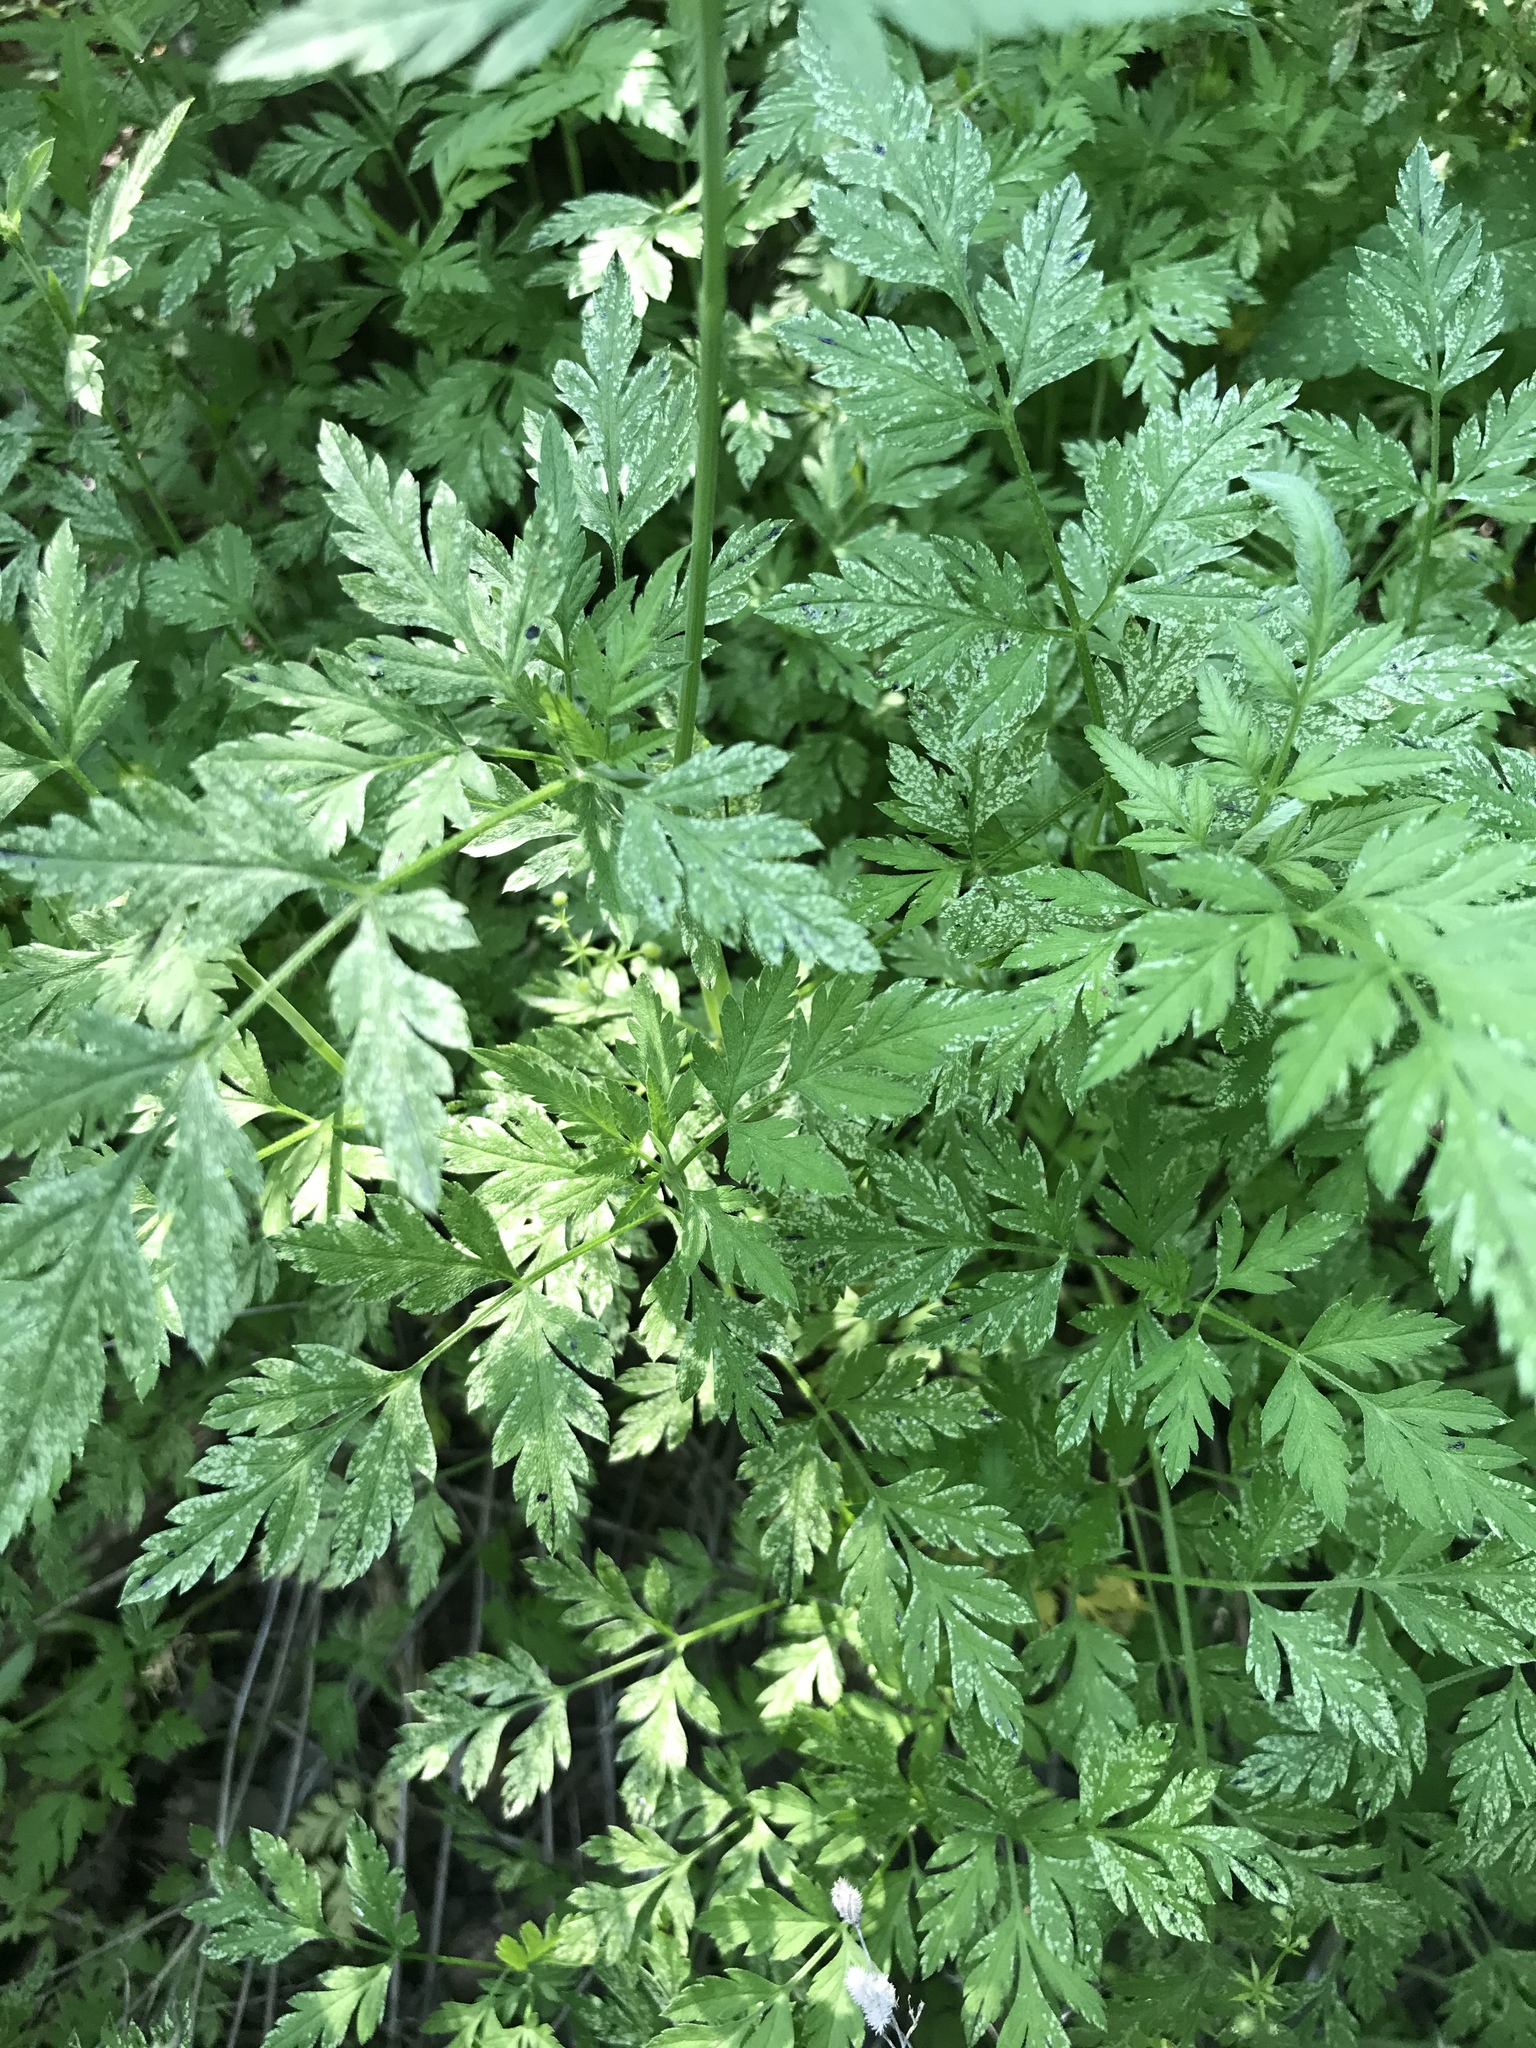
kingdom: Plantae
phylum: Tracheophyta
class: Magnoliopsida
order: Apiales
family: Apiaceae
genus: Torilis
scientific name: Torilis arvensis
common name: Spreading hedge-parsley
